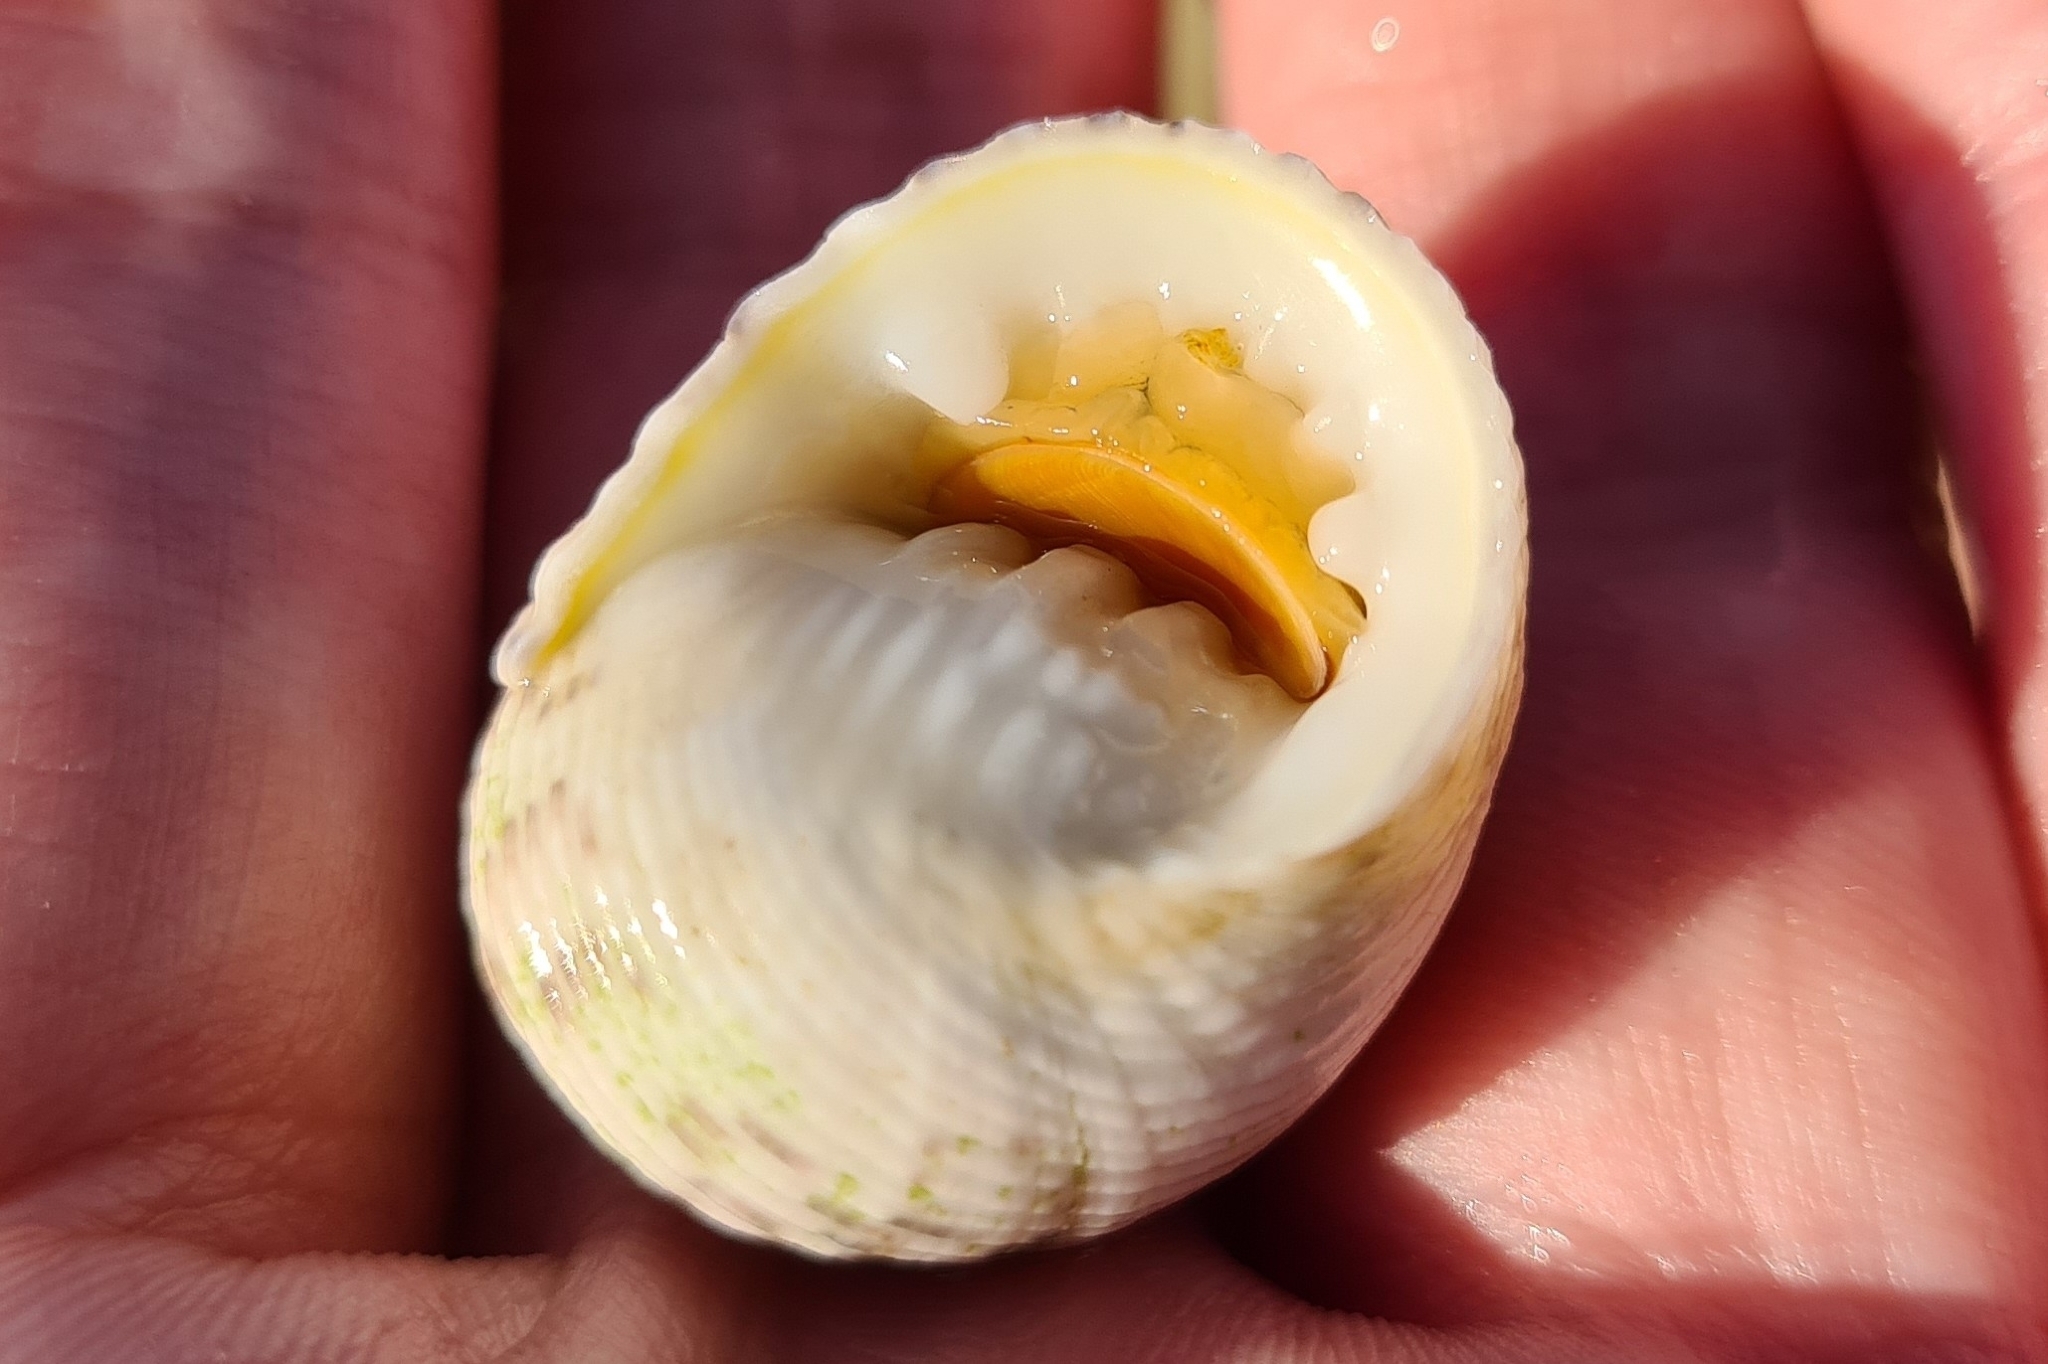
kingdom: Animalia
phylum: Mollusca
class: Gastropoda
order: Cycloneritida
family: Neritidae
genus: Nerita
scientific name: Nerita plicata
